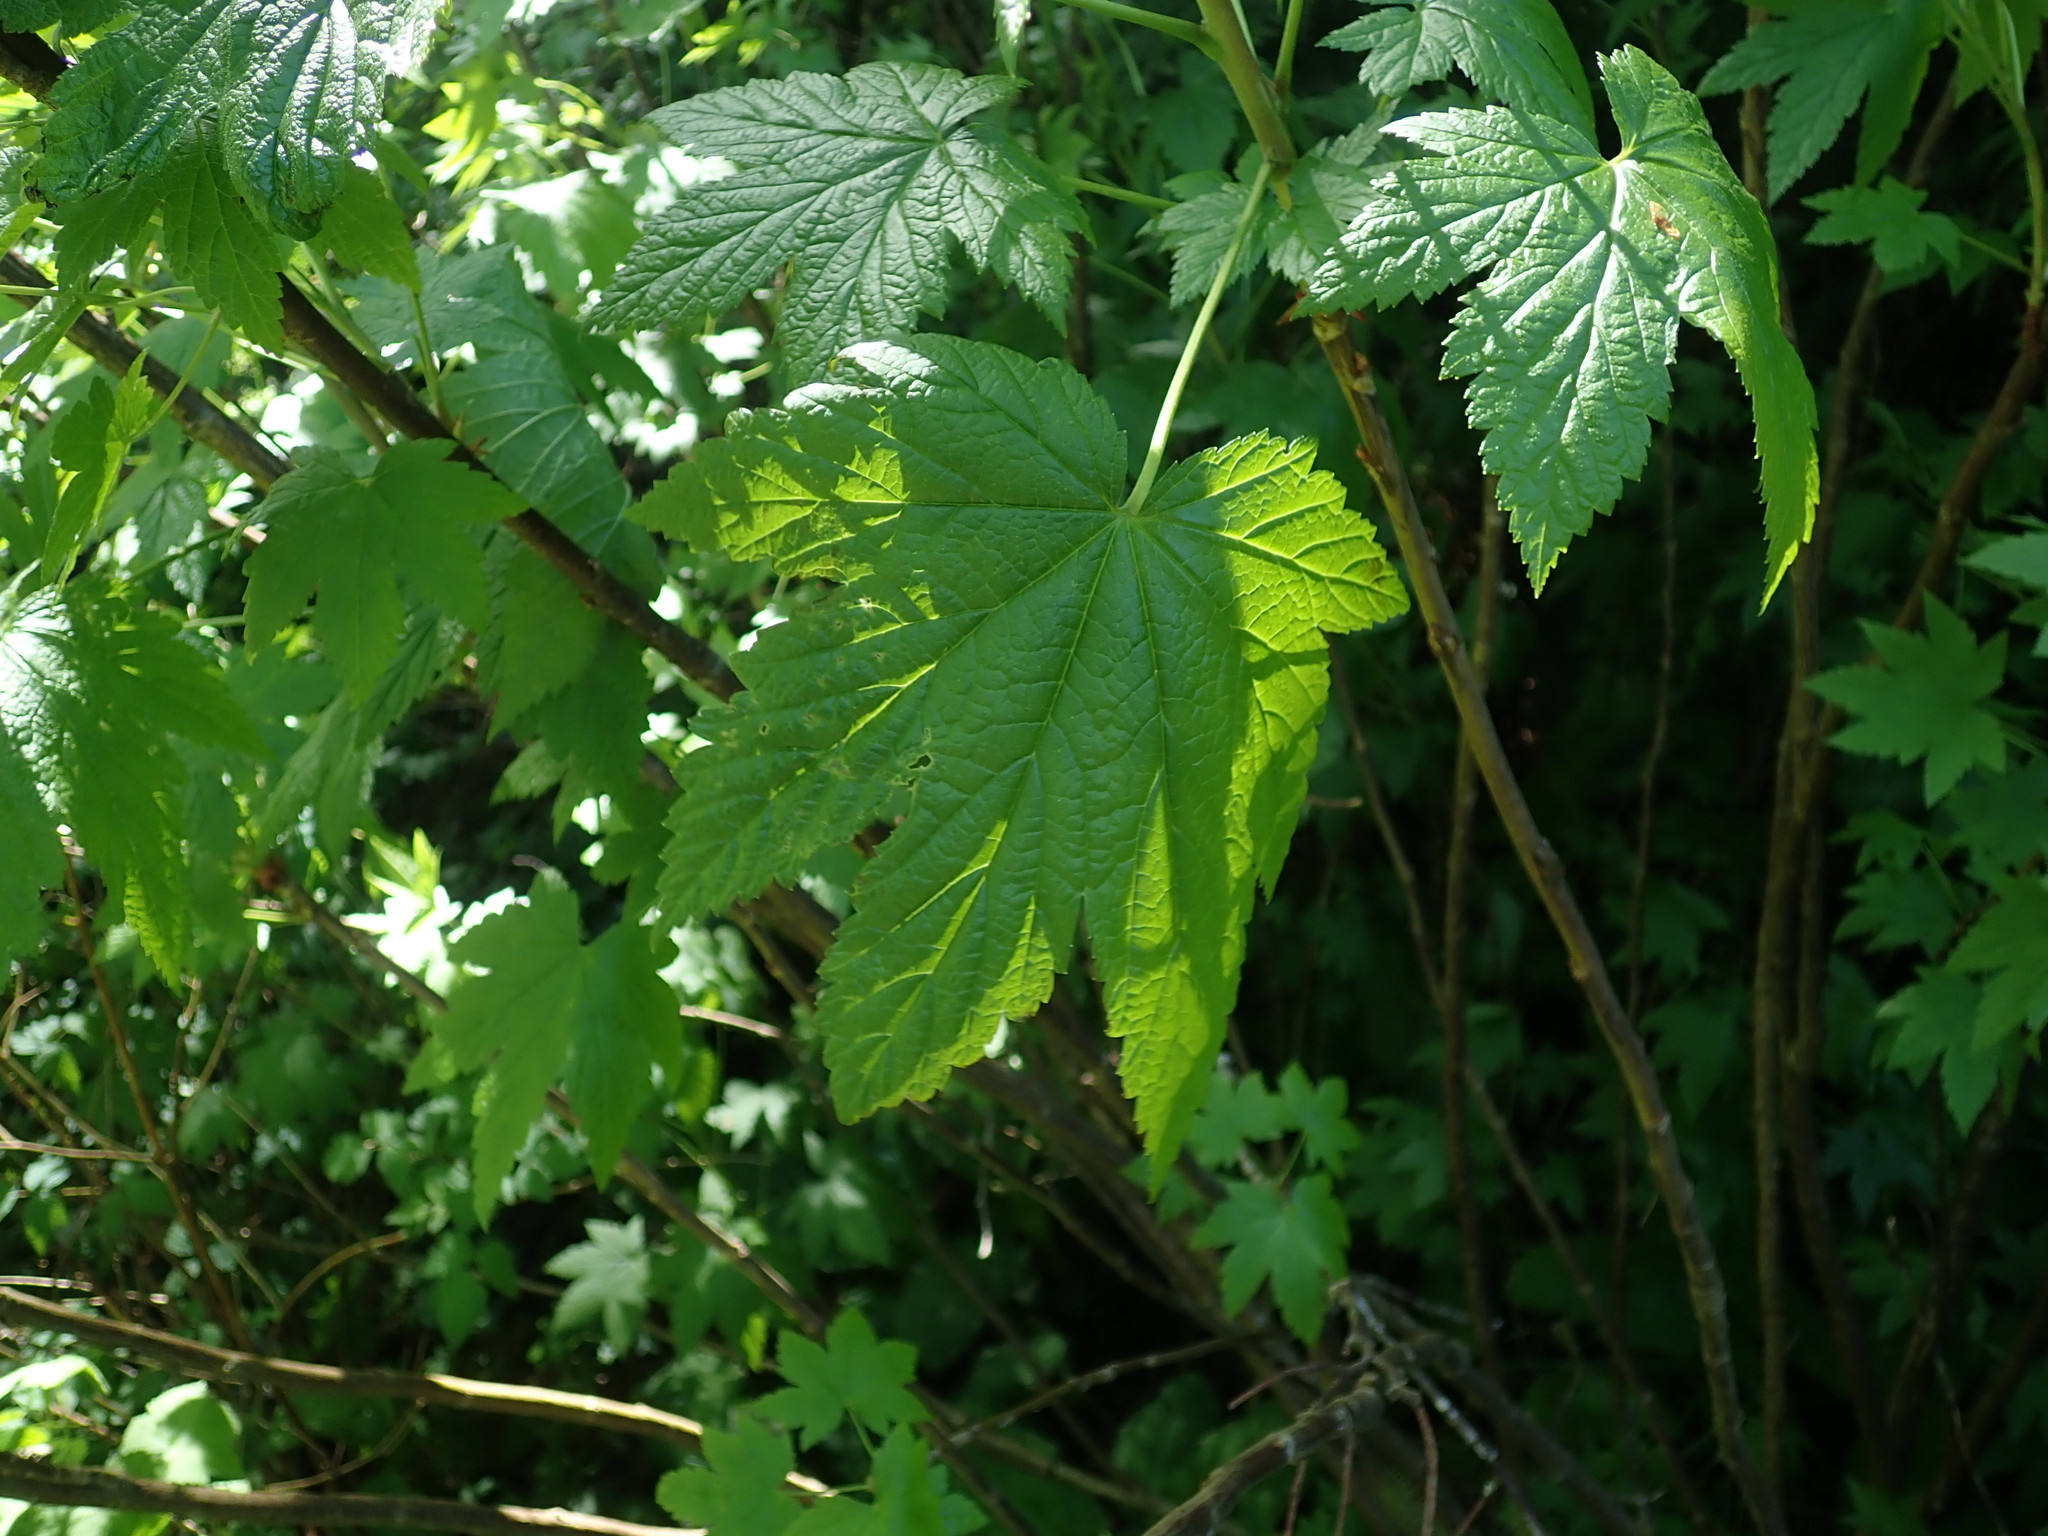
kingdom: Plantae
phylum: Tracheophyta
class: Magnoliopsida
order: Saxifragales
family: Grossulariaceae
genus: Ribes
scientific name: Ribes bracteosum
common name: California black currant
